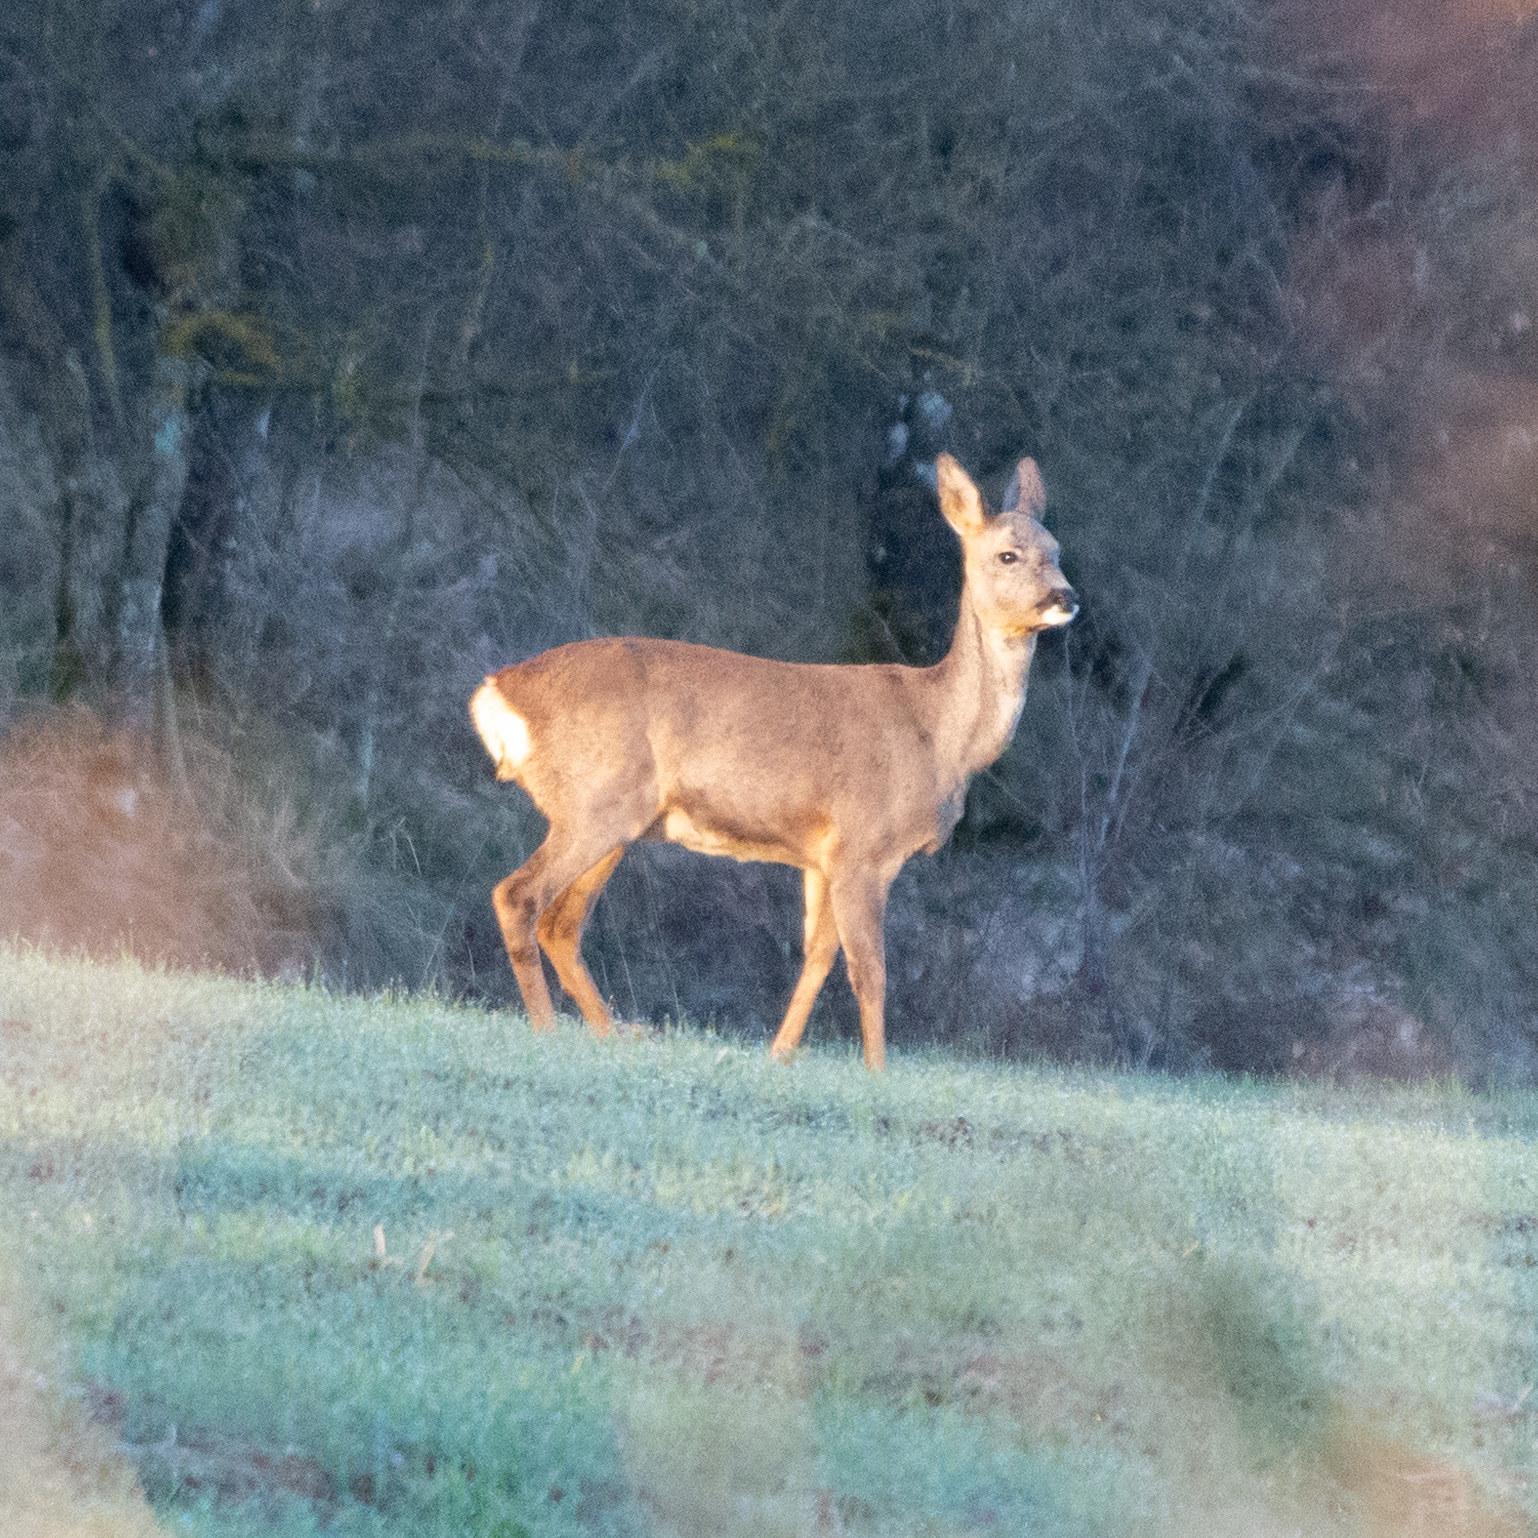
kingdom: Animalia
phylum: Chordata
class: Mammalia
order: Artiodactyla
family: Cervidae
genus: Capreolus
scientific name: Capreolus capreolus
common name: Western roe deer
